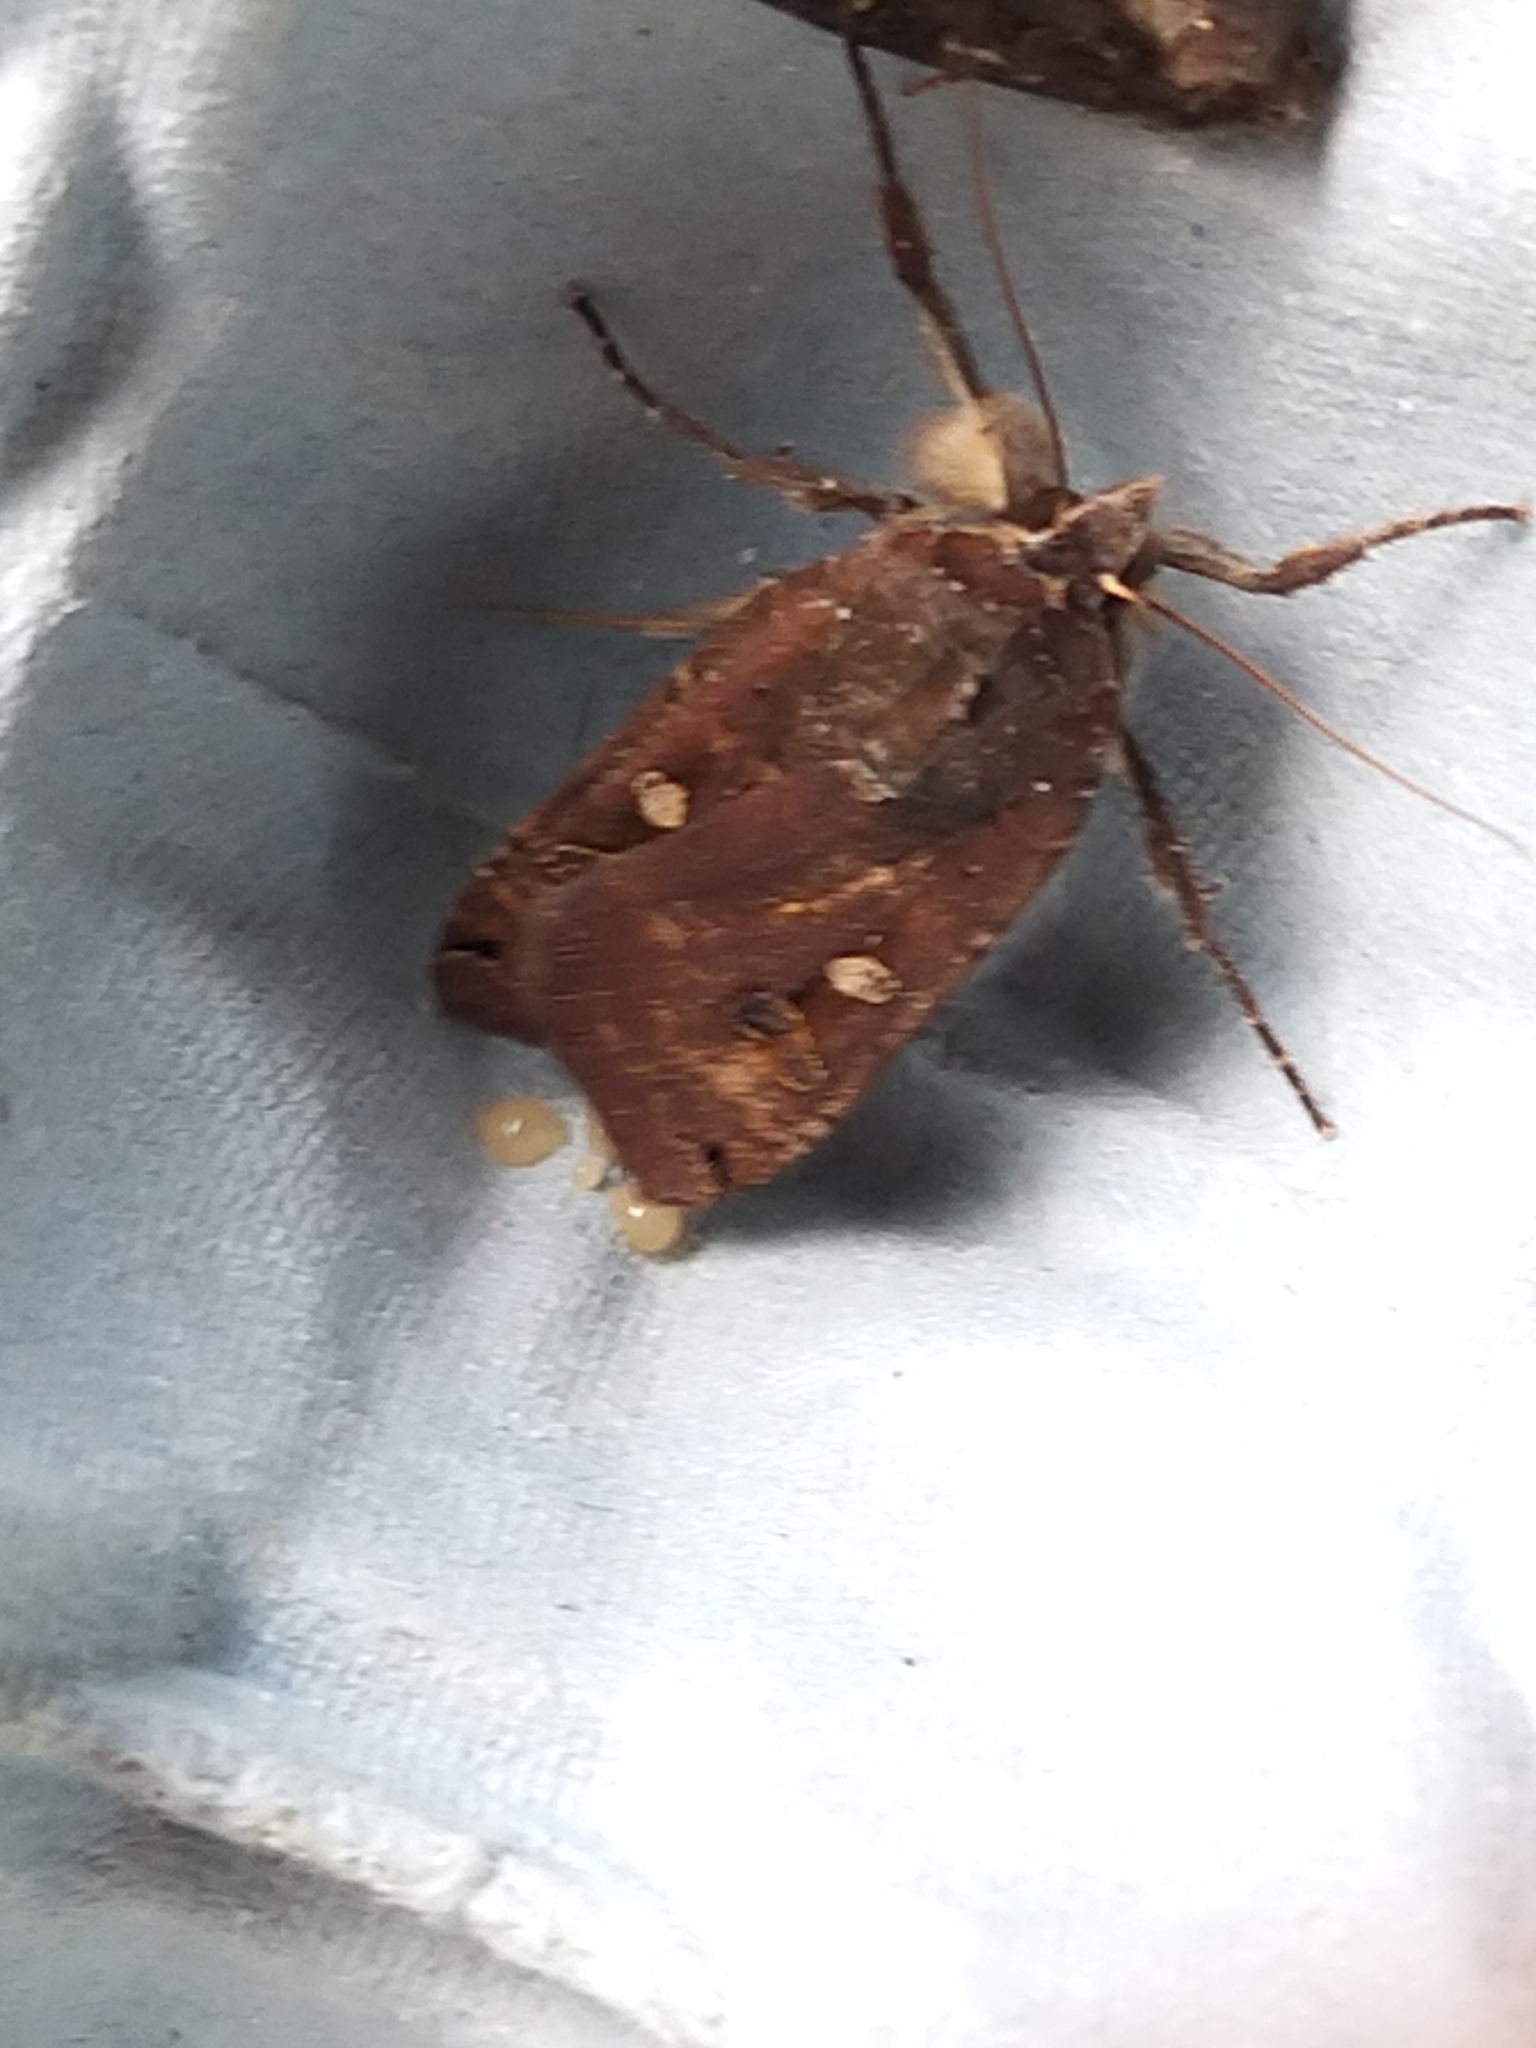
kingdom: Animalia
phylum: Arthropoda
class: Insecta
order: Lepidoptera
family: Noctuidae
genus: Xestia
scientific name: Xestia xanthographa
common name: Square-spot rustic
